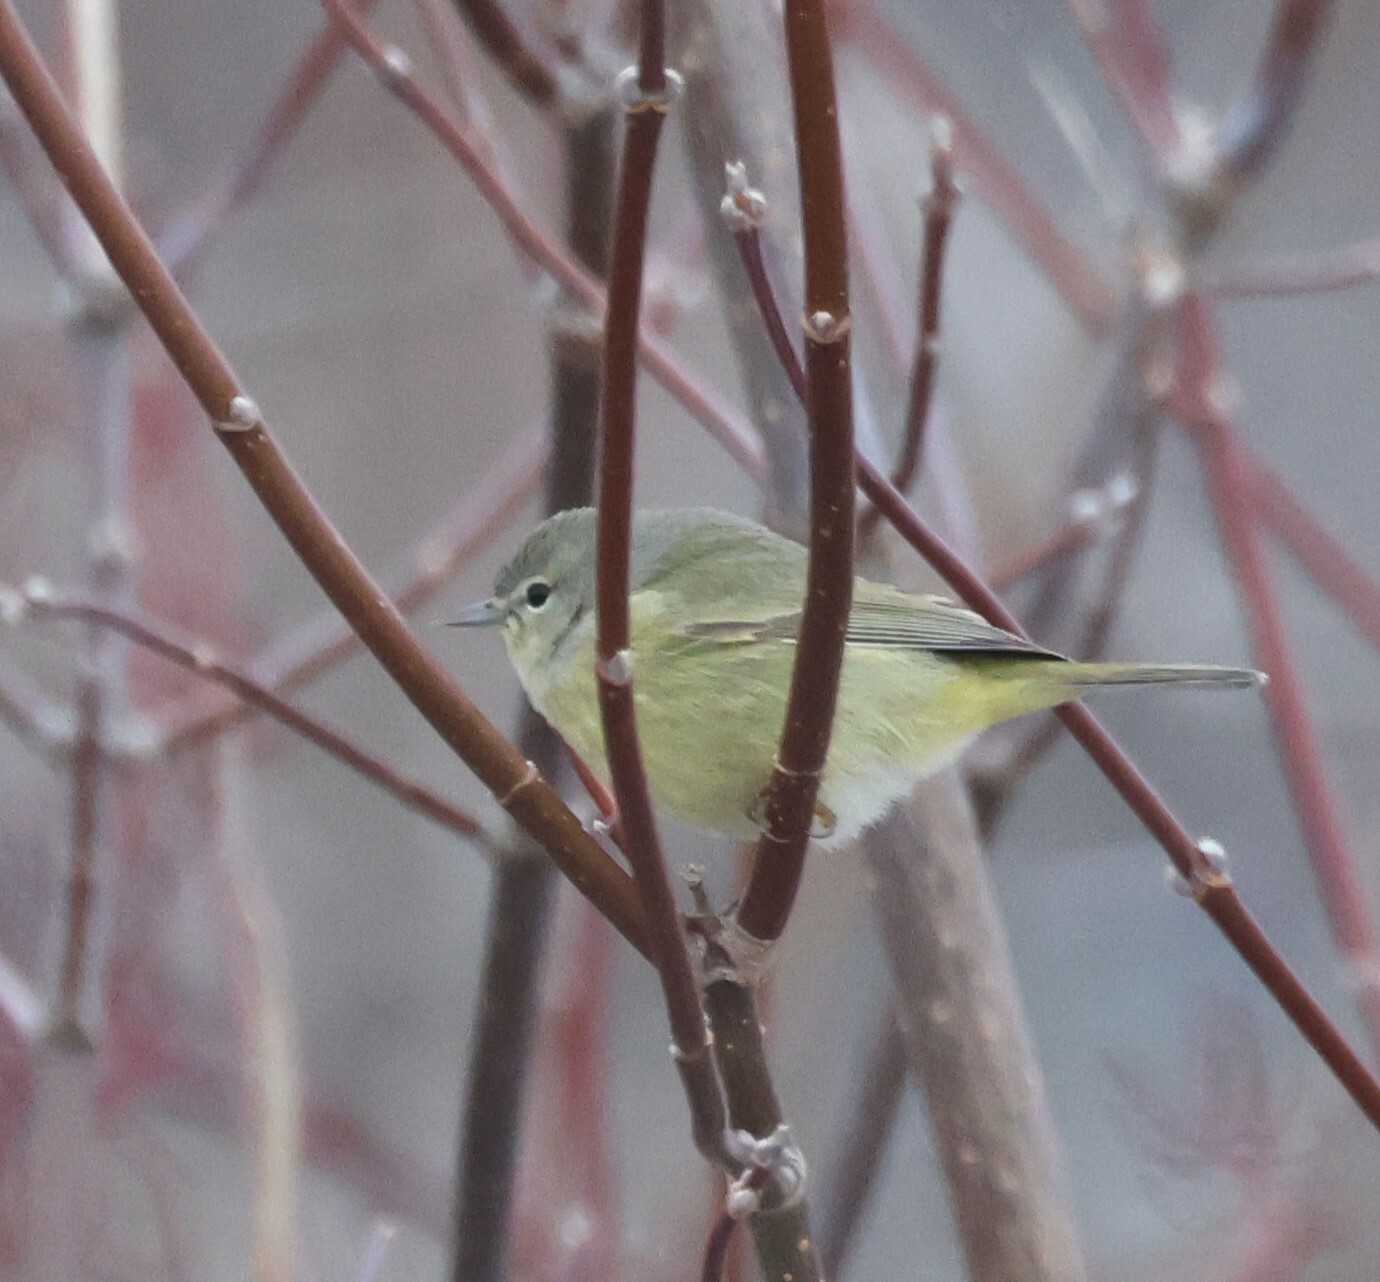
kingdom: Animalia
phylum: Chordata
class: Aves
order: Passeriformes
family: Parulidae
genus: Leiothlypis
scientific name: Leiothlypis celata
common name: Orange-crowned warbler
